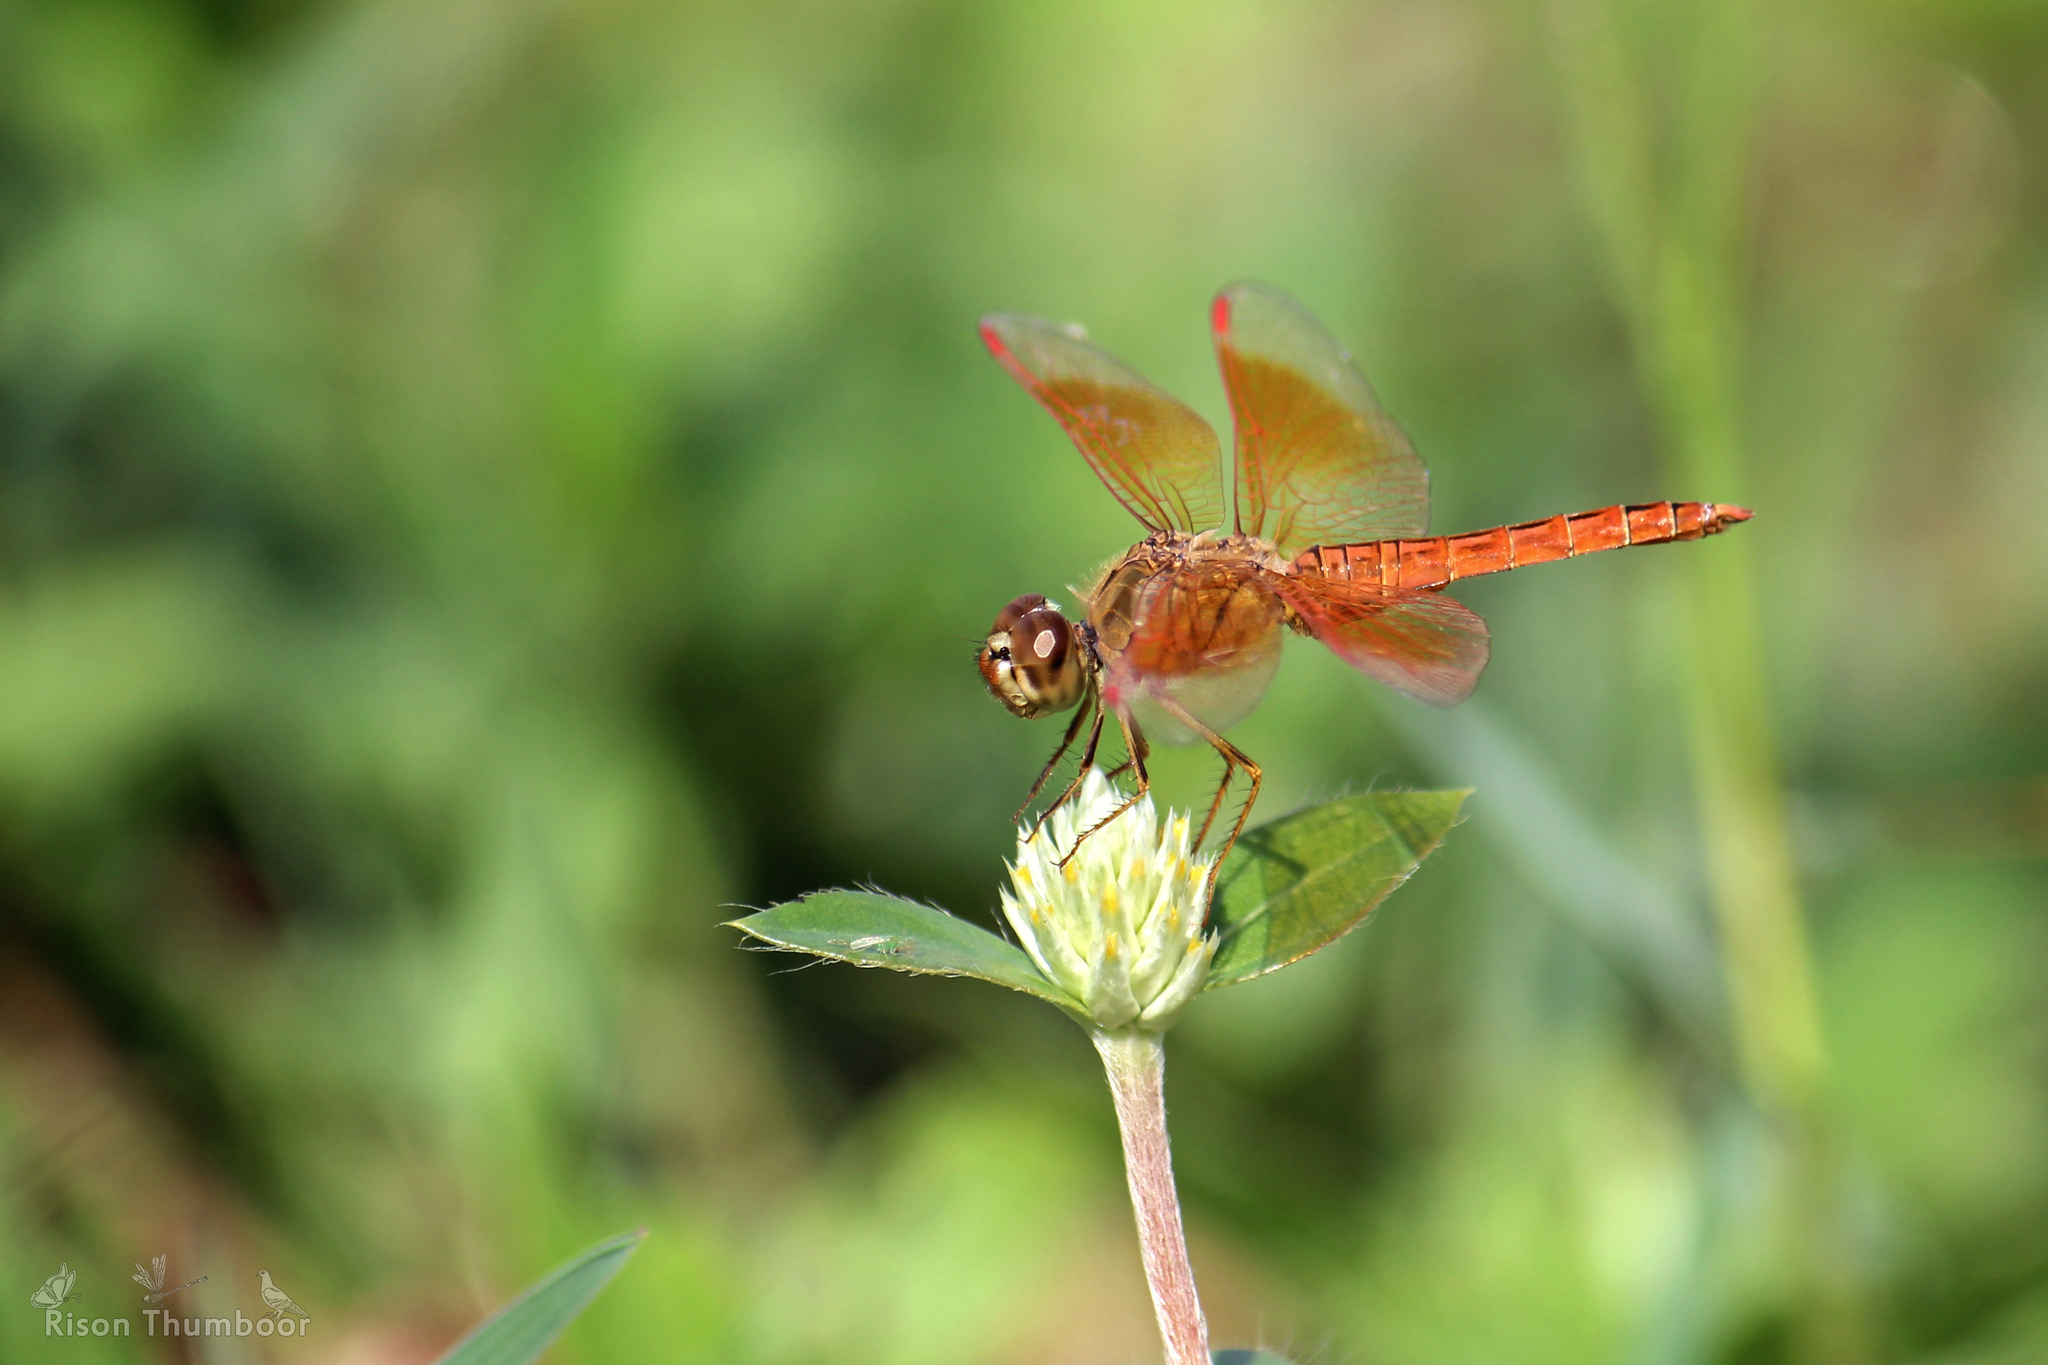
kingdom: Animalia
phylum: Arthropoda
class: Insecta
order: Odonata
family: Libellulidae
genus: Brachythemis
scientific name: Brachythemis contaminata
